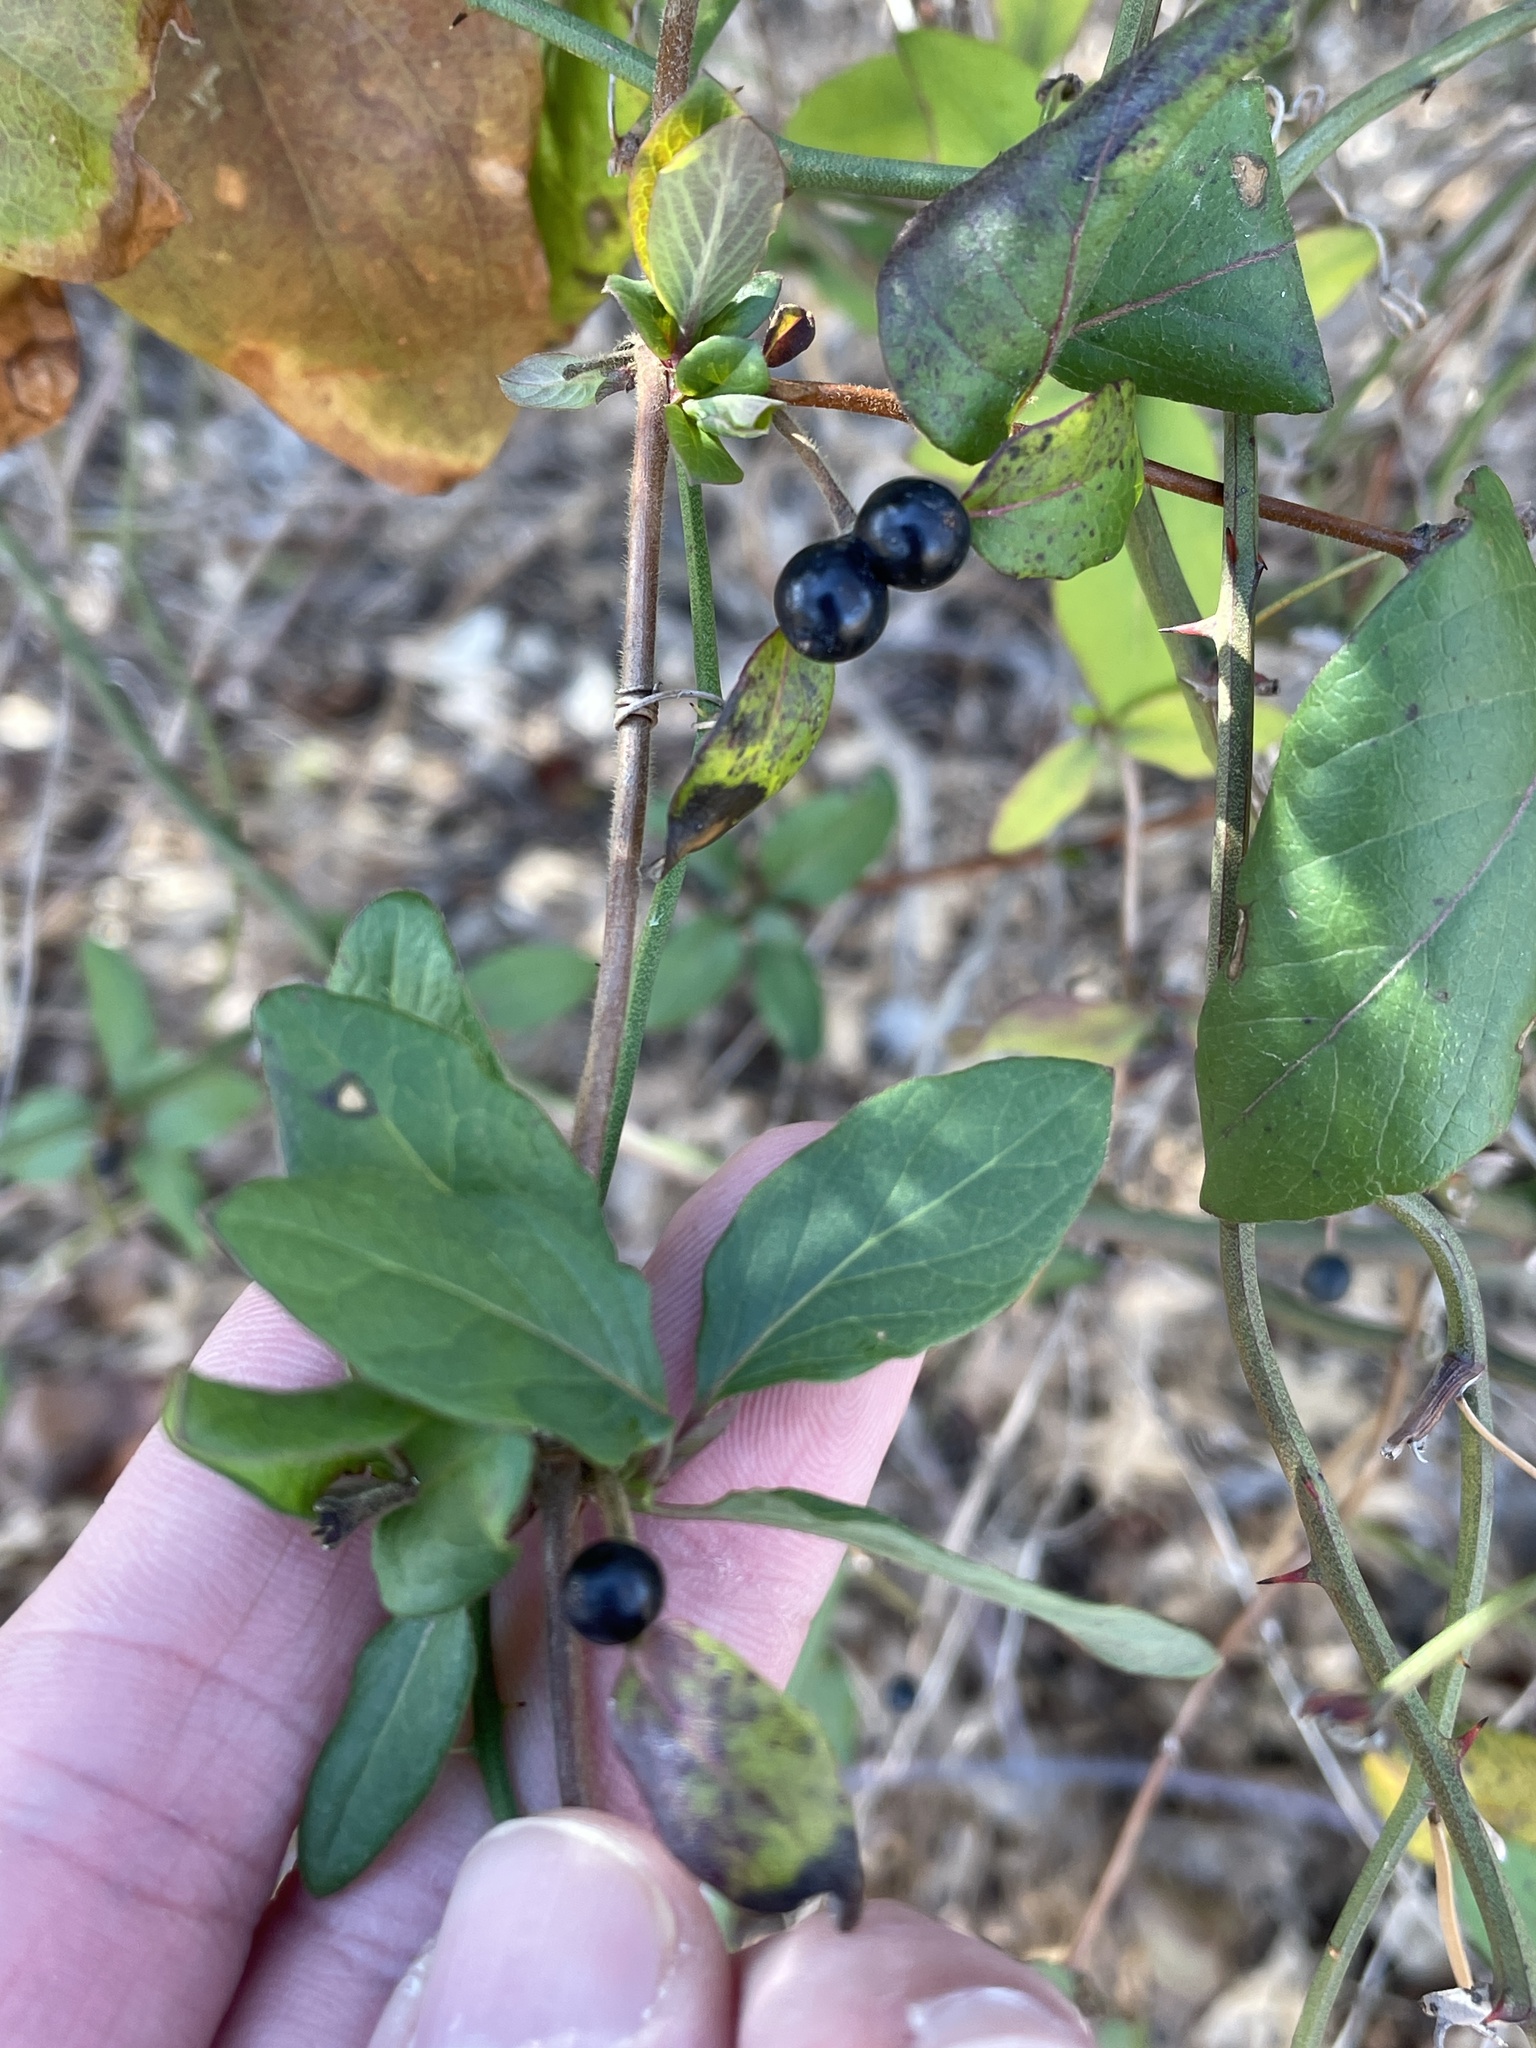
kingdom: Plantae
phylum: Tracheophyta
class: Magnoliopsida
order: Dipsacales
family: Caprifoliaceae
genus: Lonicera
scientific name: Lonicera japonica
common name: Japanese honeysuckle
